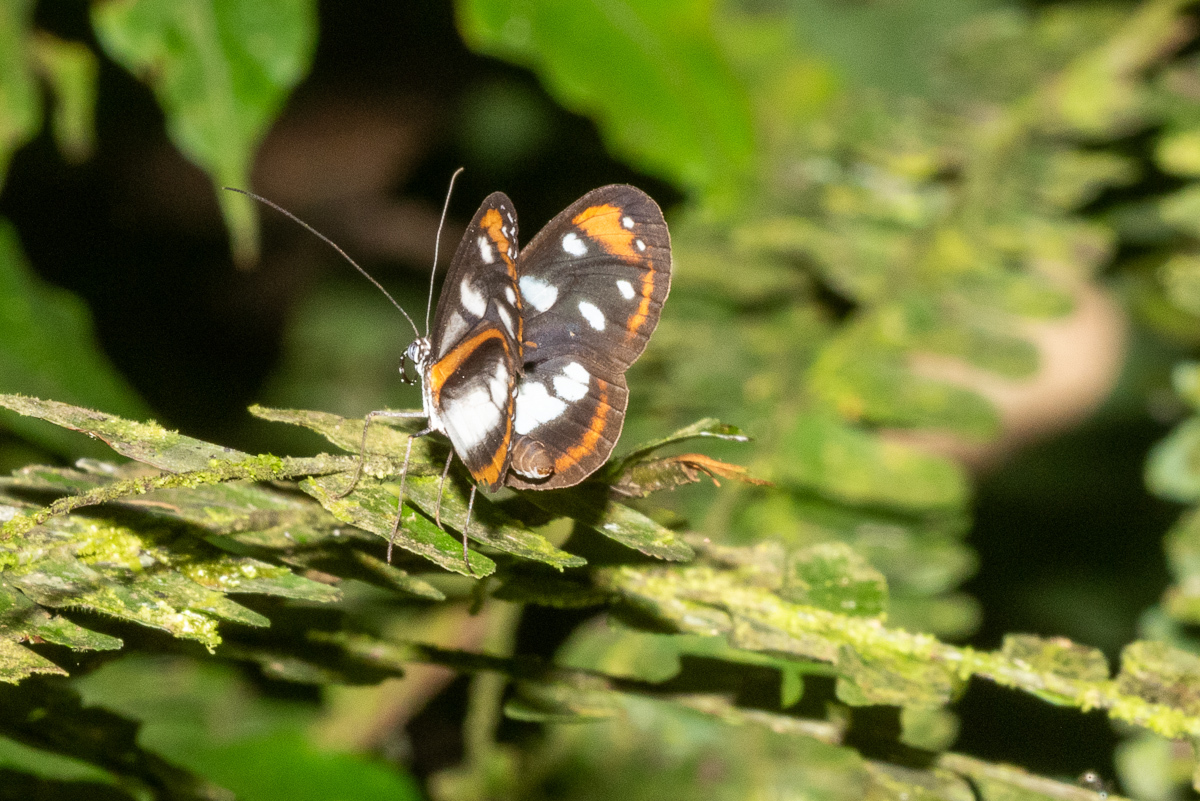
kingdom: Animalia
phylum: Arthropoda
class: Insecta
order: Lepidoptera
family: Nymphalidae
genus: Hyposcada
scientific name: Hyposcada illinissa
